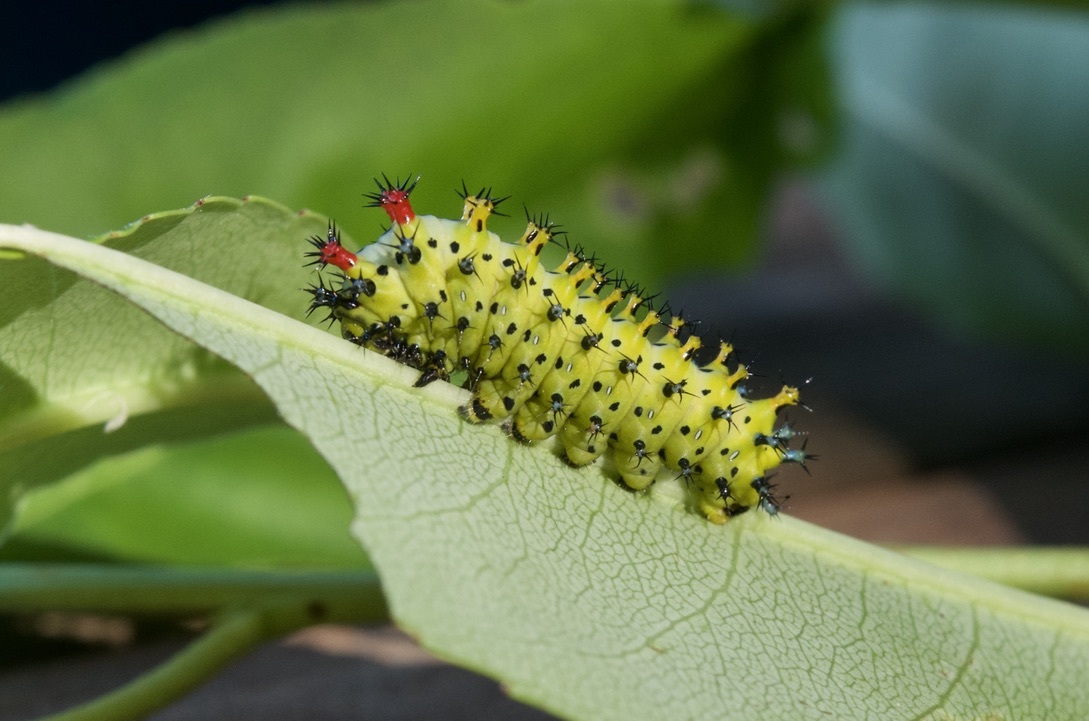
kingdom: Animalia
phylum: Arthropoda
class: Insecta
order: Lepidoptera
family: Saturniidae
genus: Hyalophora
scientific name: Hyalophora cecropia
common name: Cecropia silkmoth
